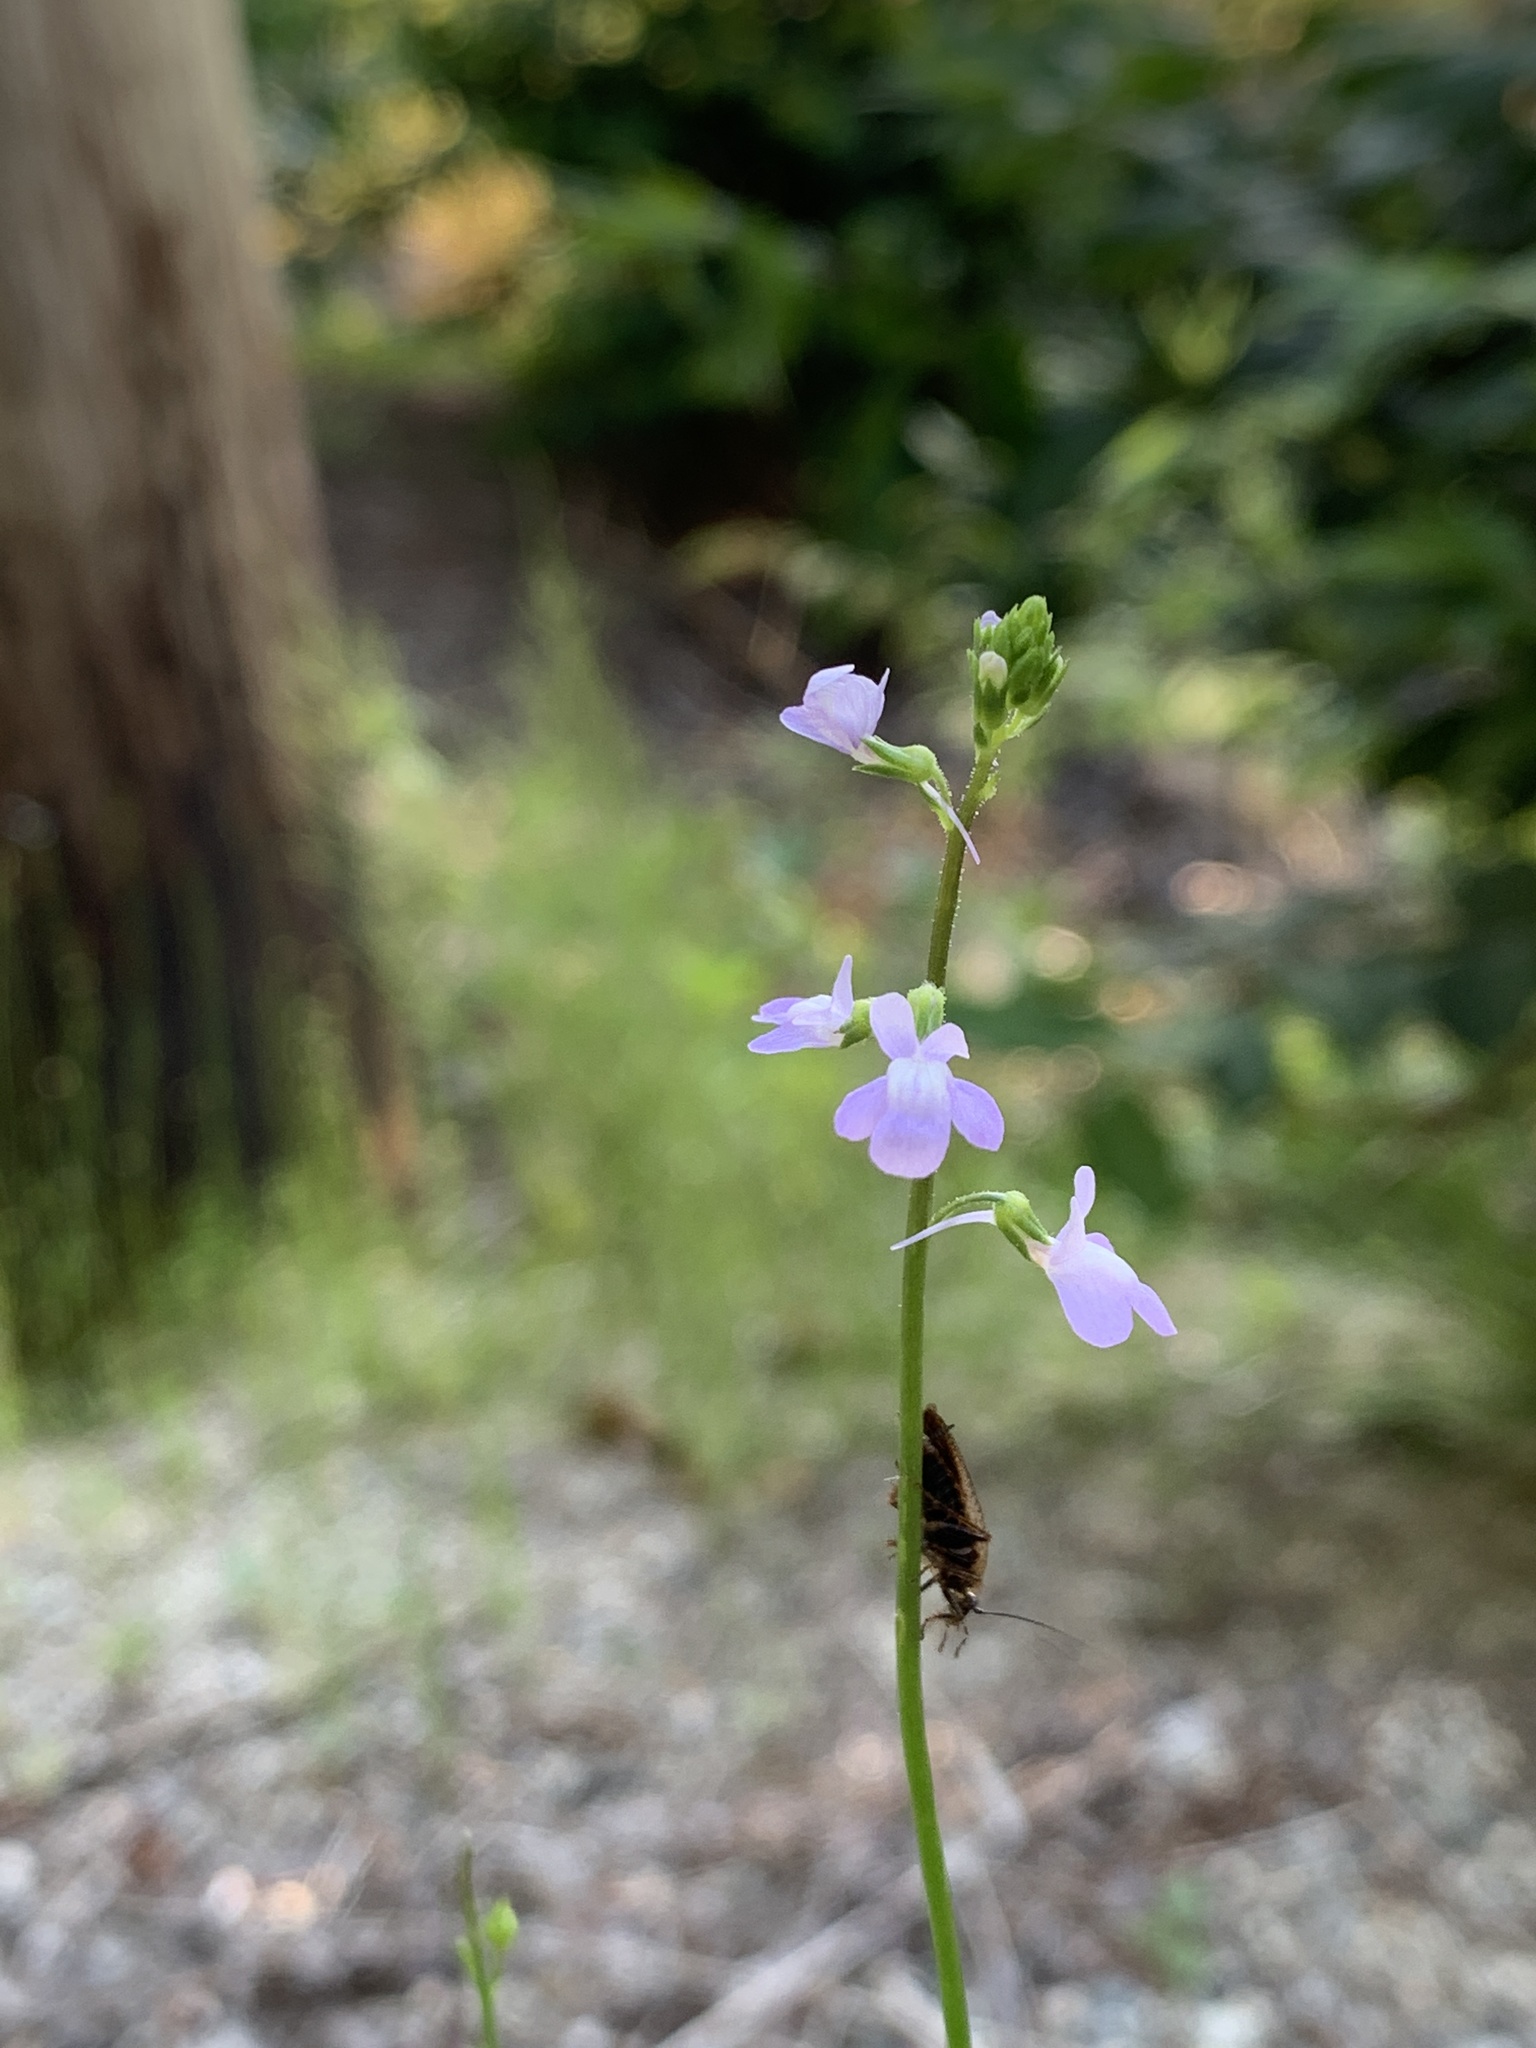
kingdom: Plantae
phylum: Tracheophyta
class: Magnoliopsida
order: Lamiales
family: Plantaginaceae
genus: Nuttallanthus
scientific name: Nuttallanthus canadensis
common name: Blue toadflax
